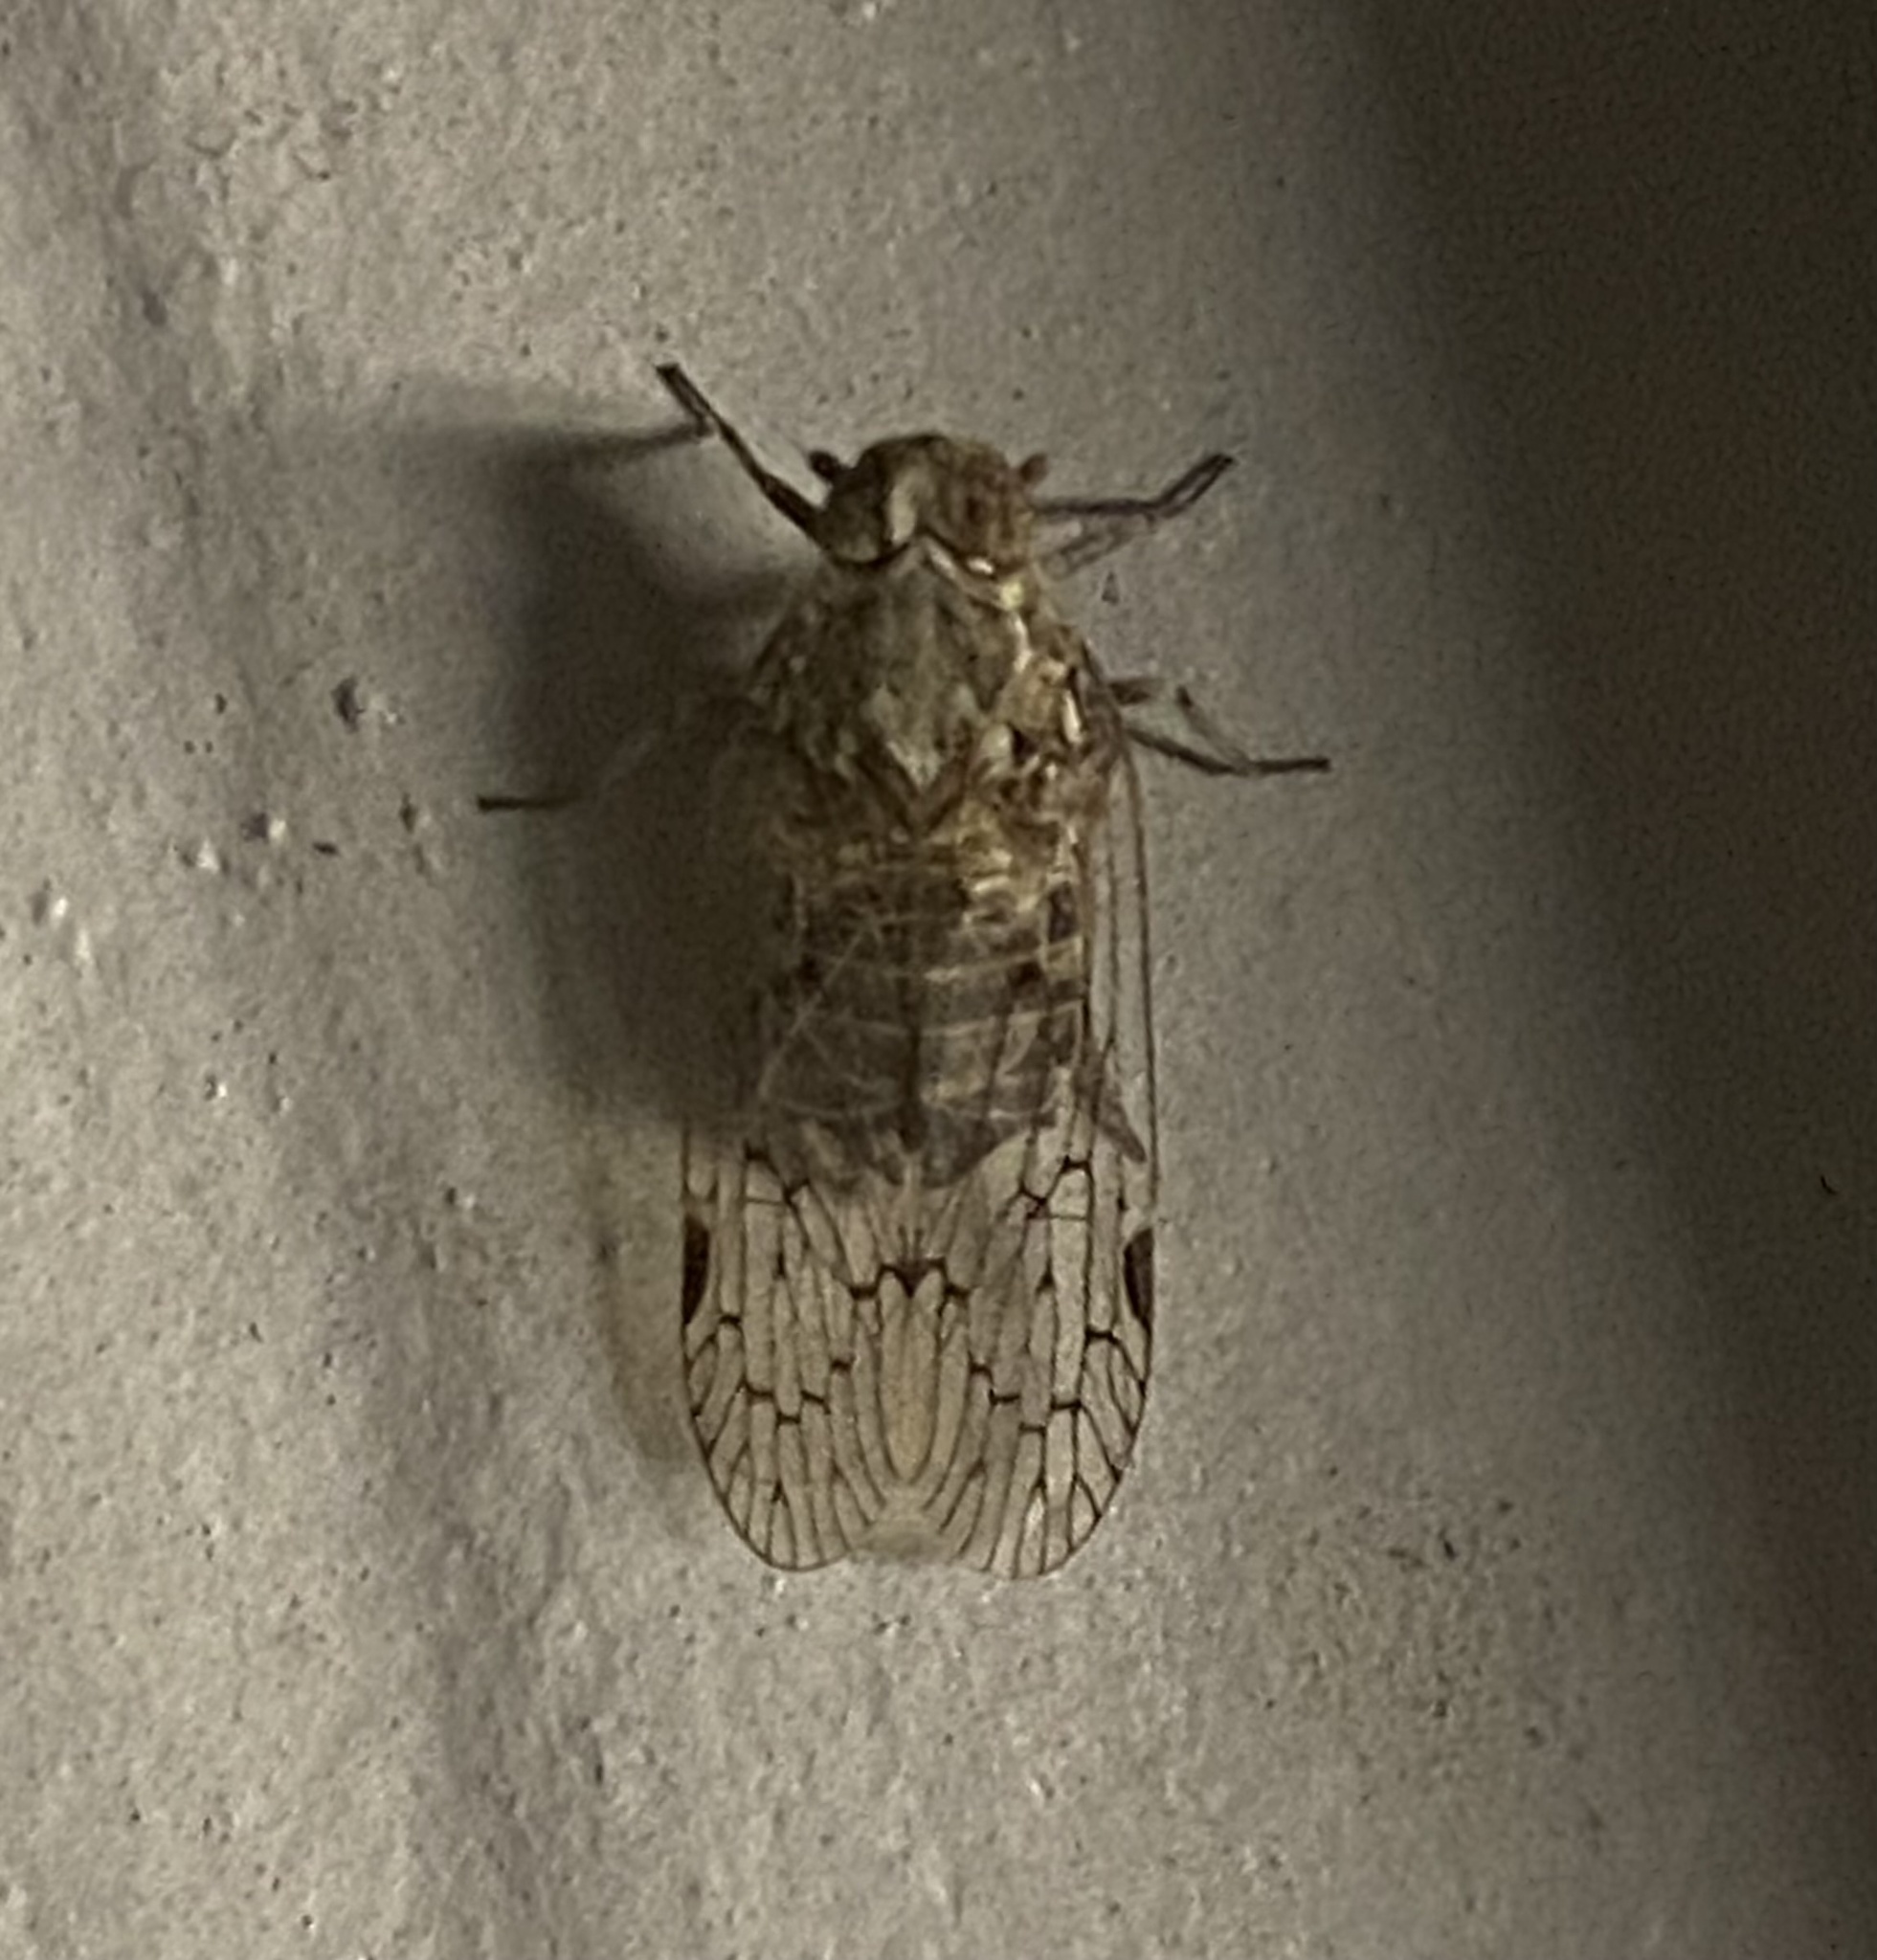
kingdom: Animalia
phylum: Arthropoda
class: Insecta
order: Hemiptera
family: Cixiidae
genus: Melanoliarus
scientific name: Melanoliarus aridus
